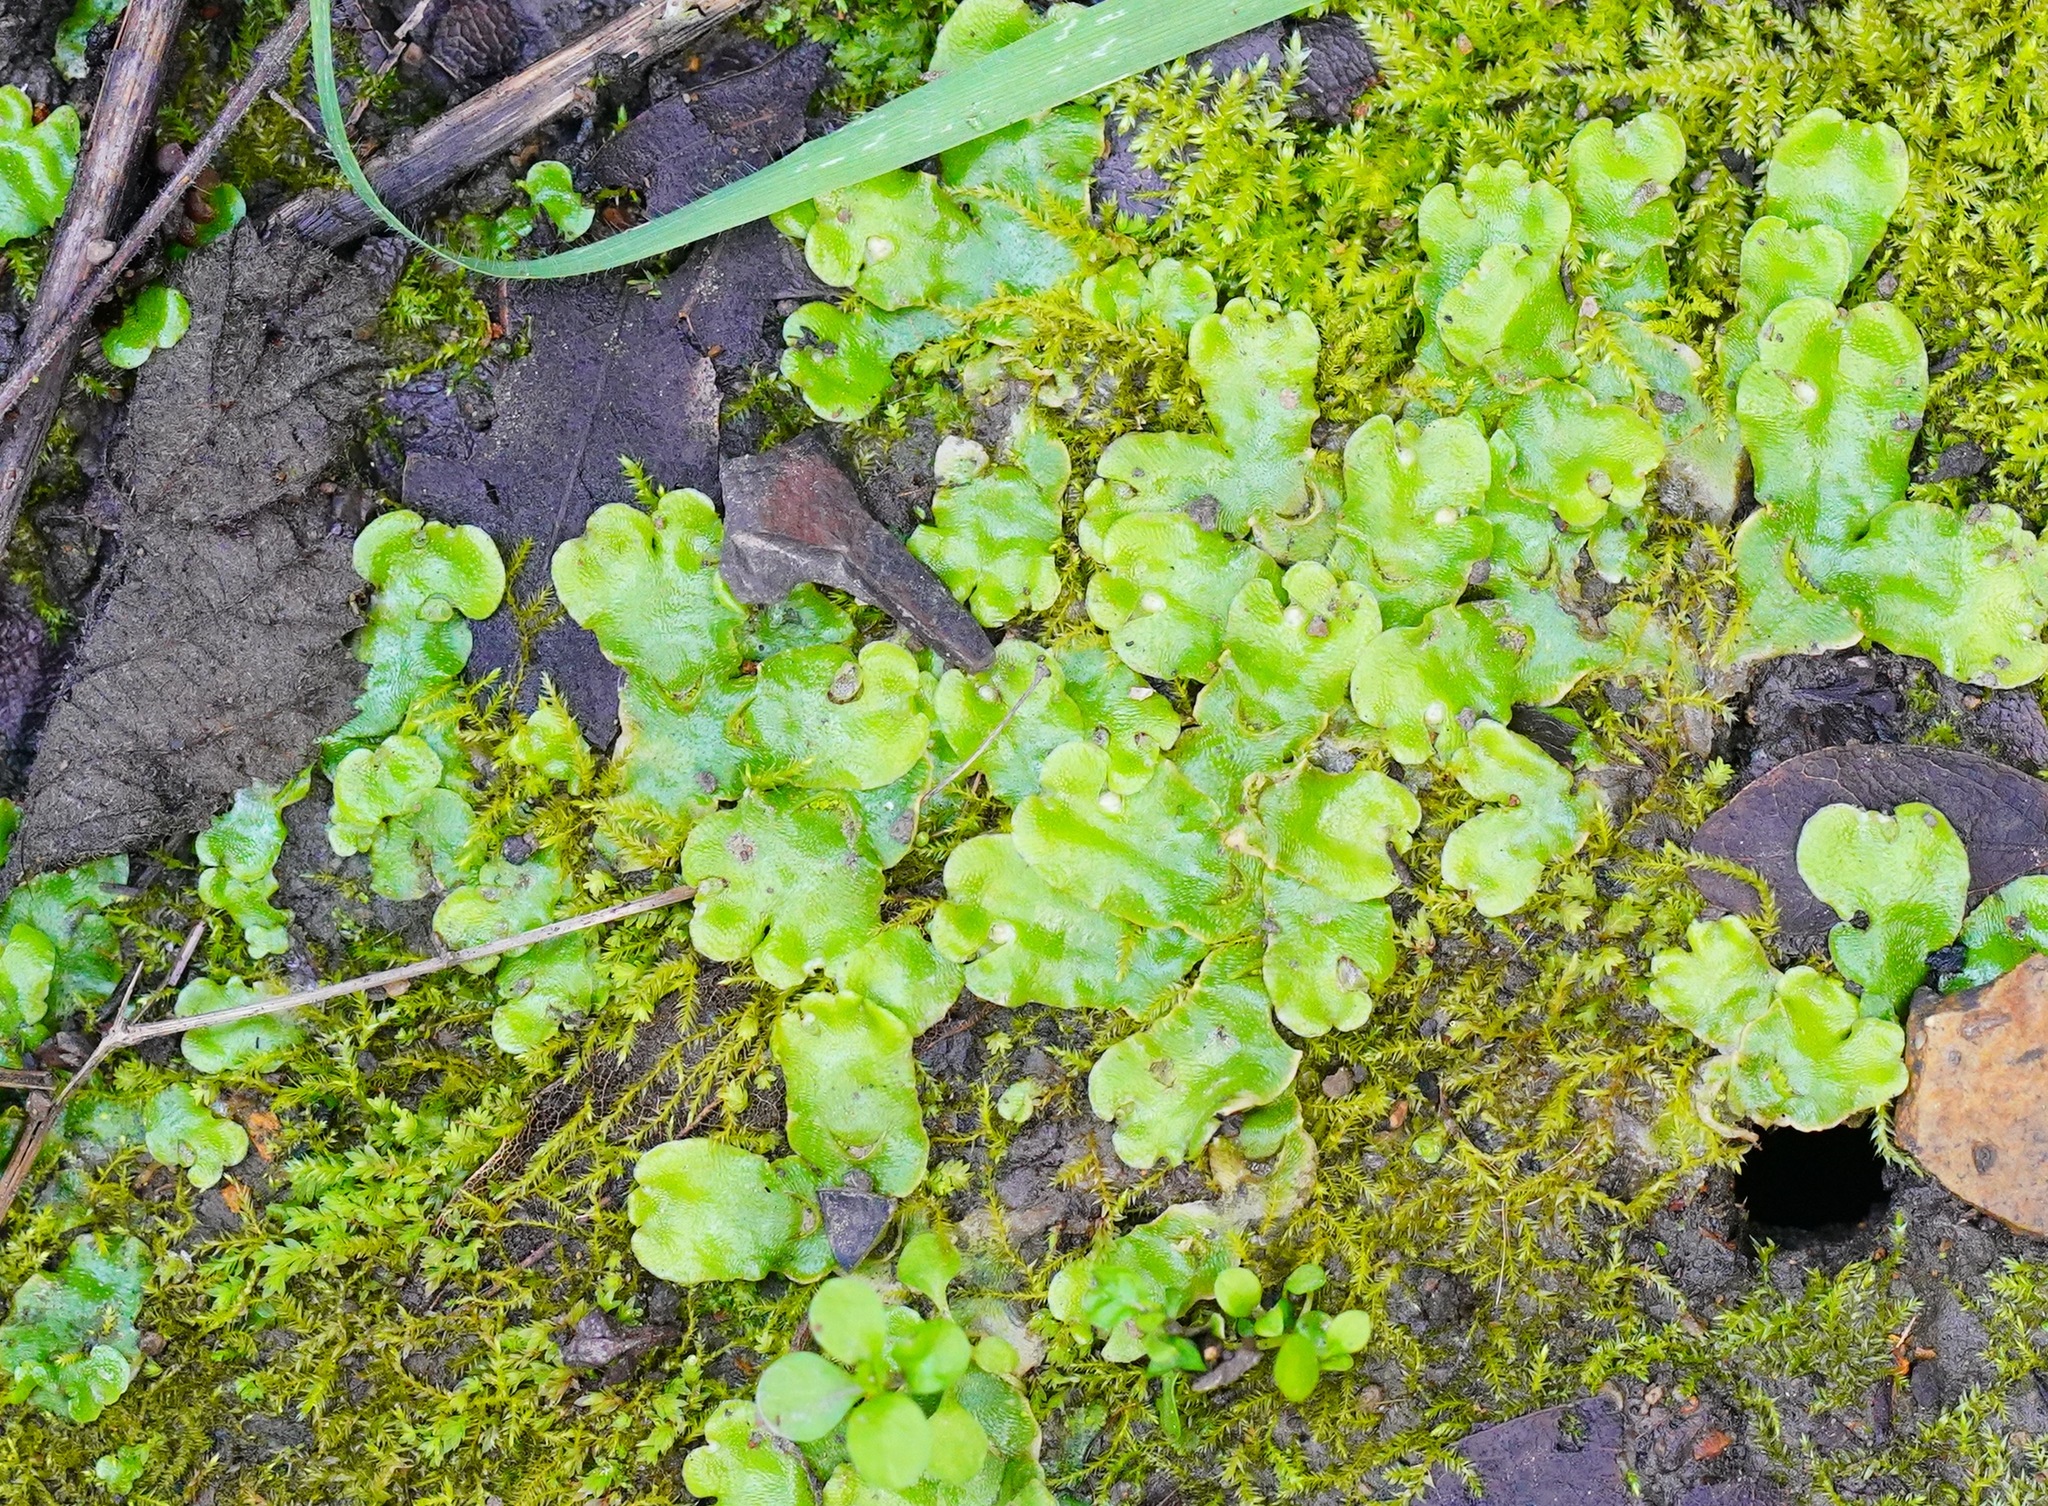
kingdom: Plantae
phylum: Marchantiophyta
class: Marchantiopsida
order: Lunulariales
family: Lunulariaceae
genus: Lunularia
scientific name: Lunularia cruciata
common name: Crescent-cup liverwort
